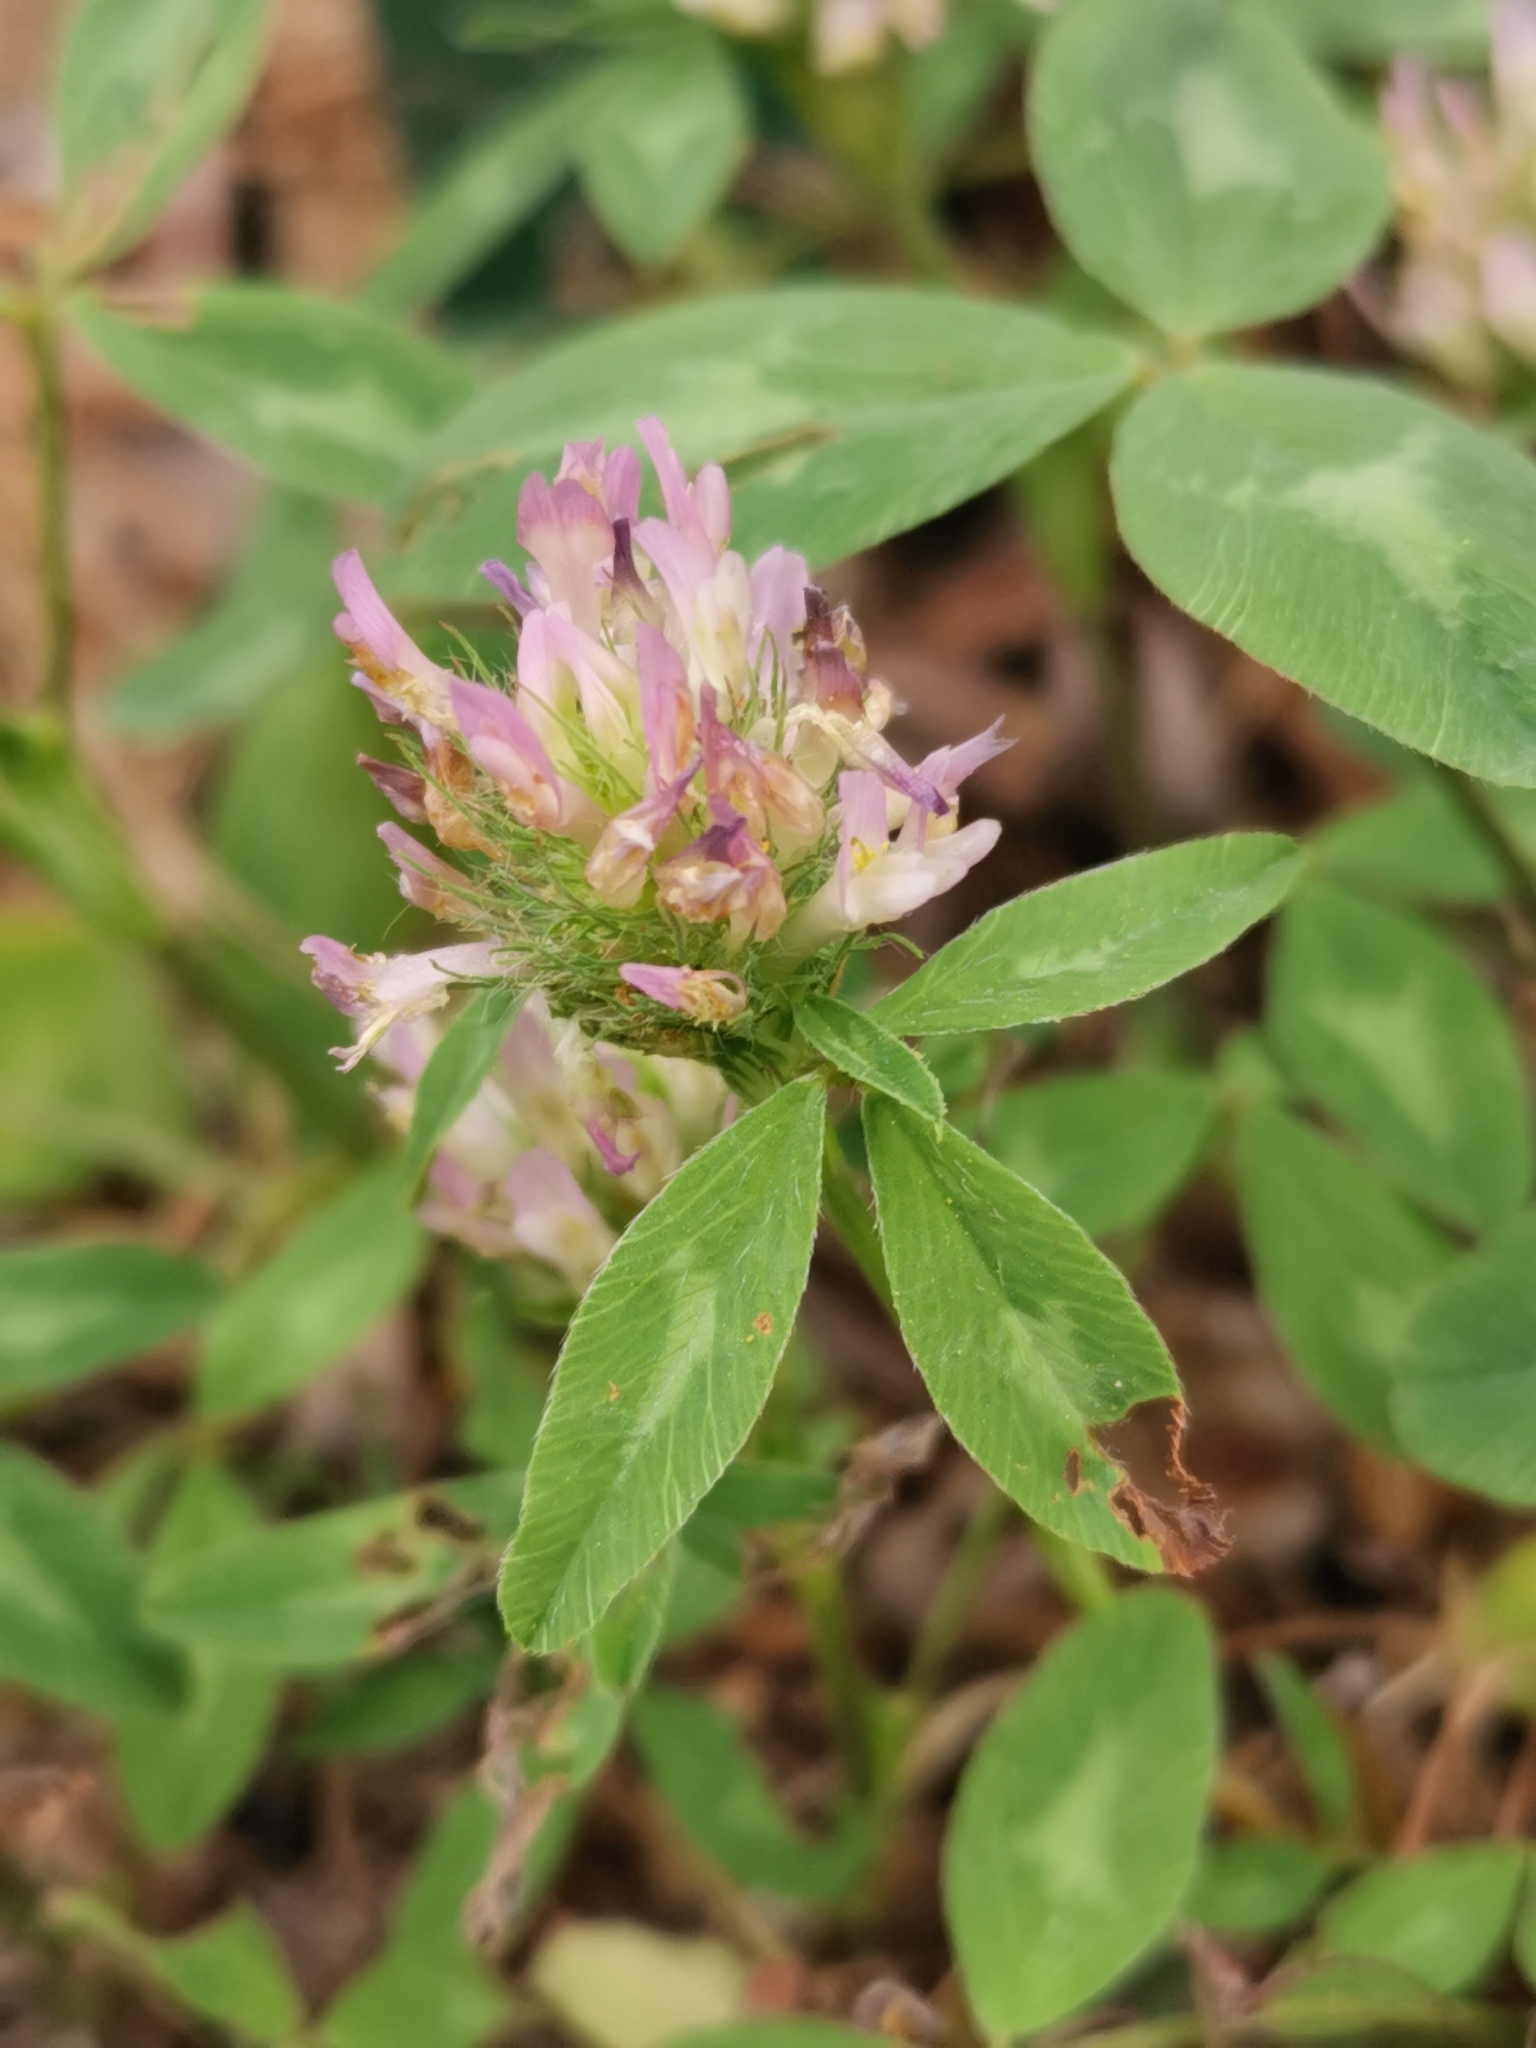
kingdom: Plantae
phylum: Tracheophyta
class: Magnoliopsida
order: Fabales
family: Fabaceae
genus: Trifolium
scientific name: Trifolium pratense
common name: Red clover
